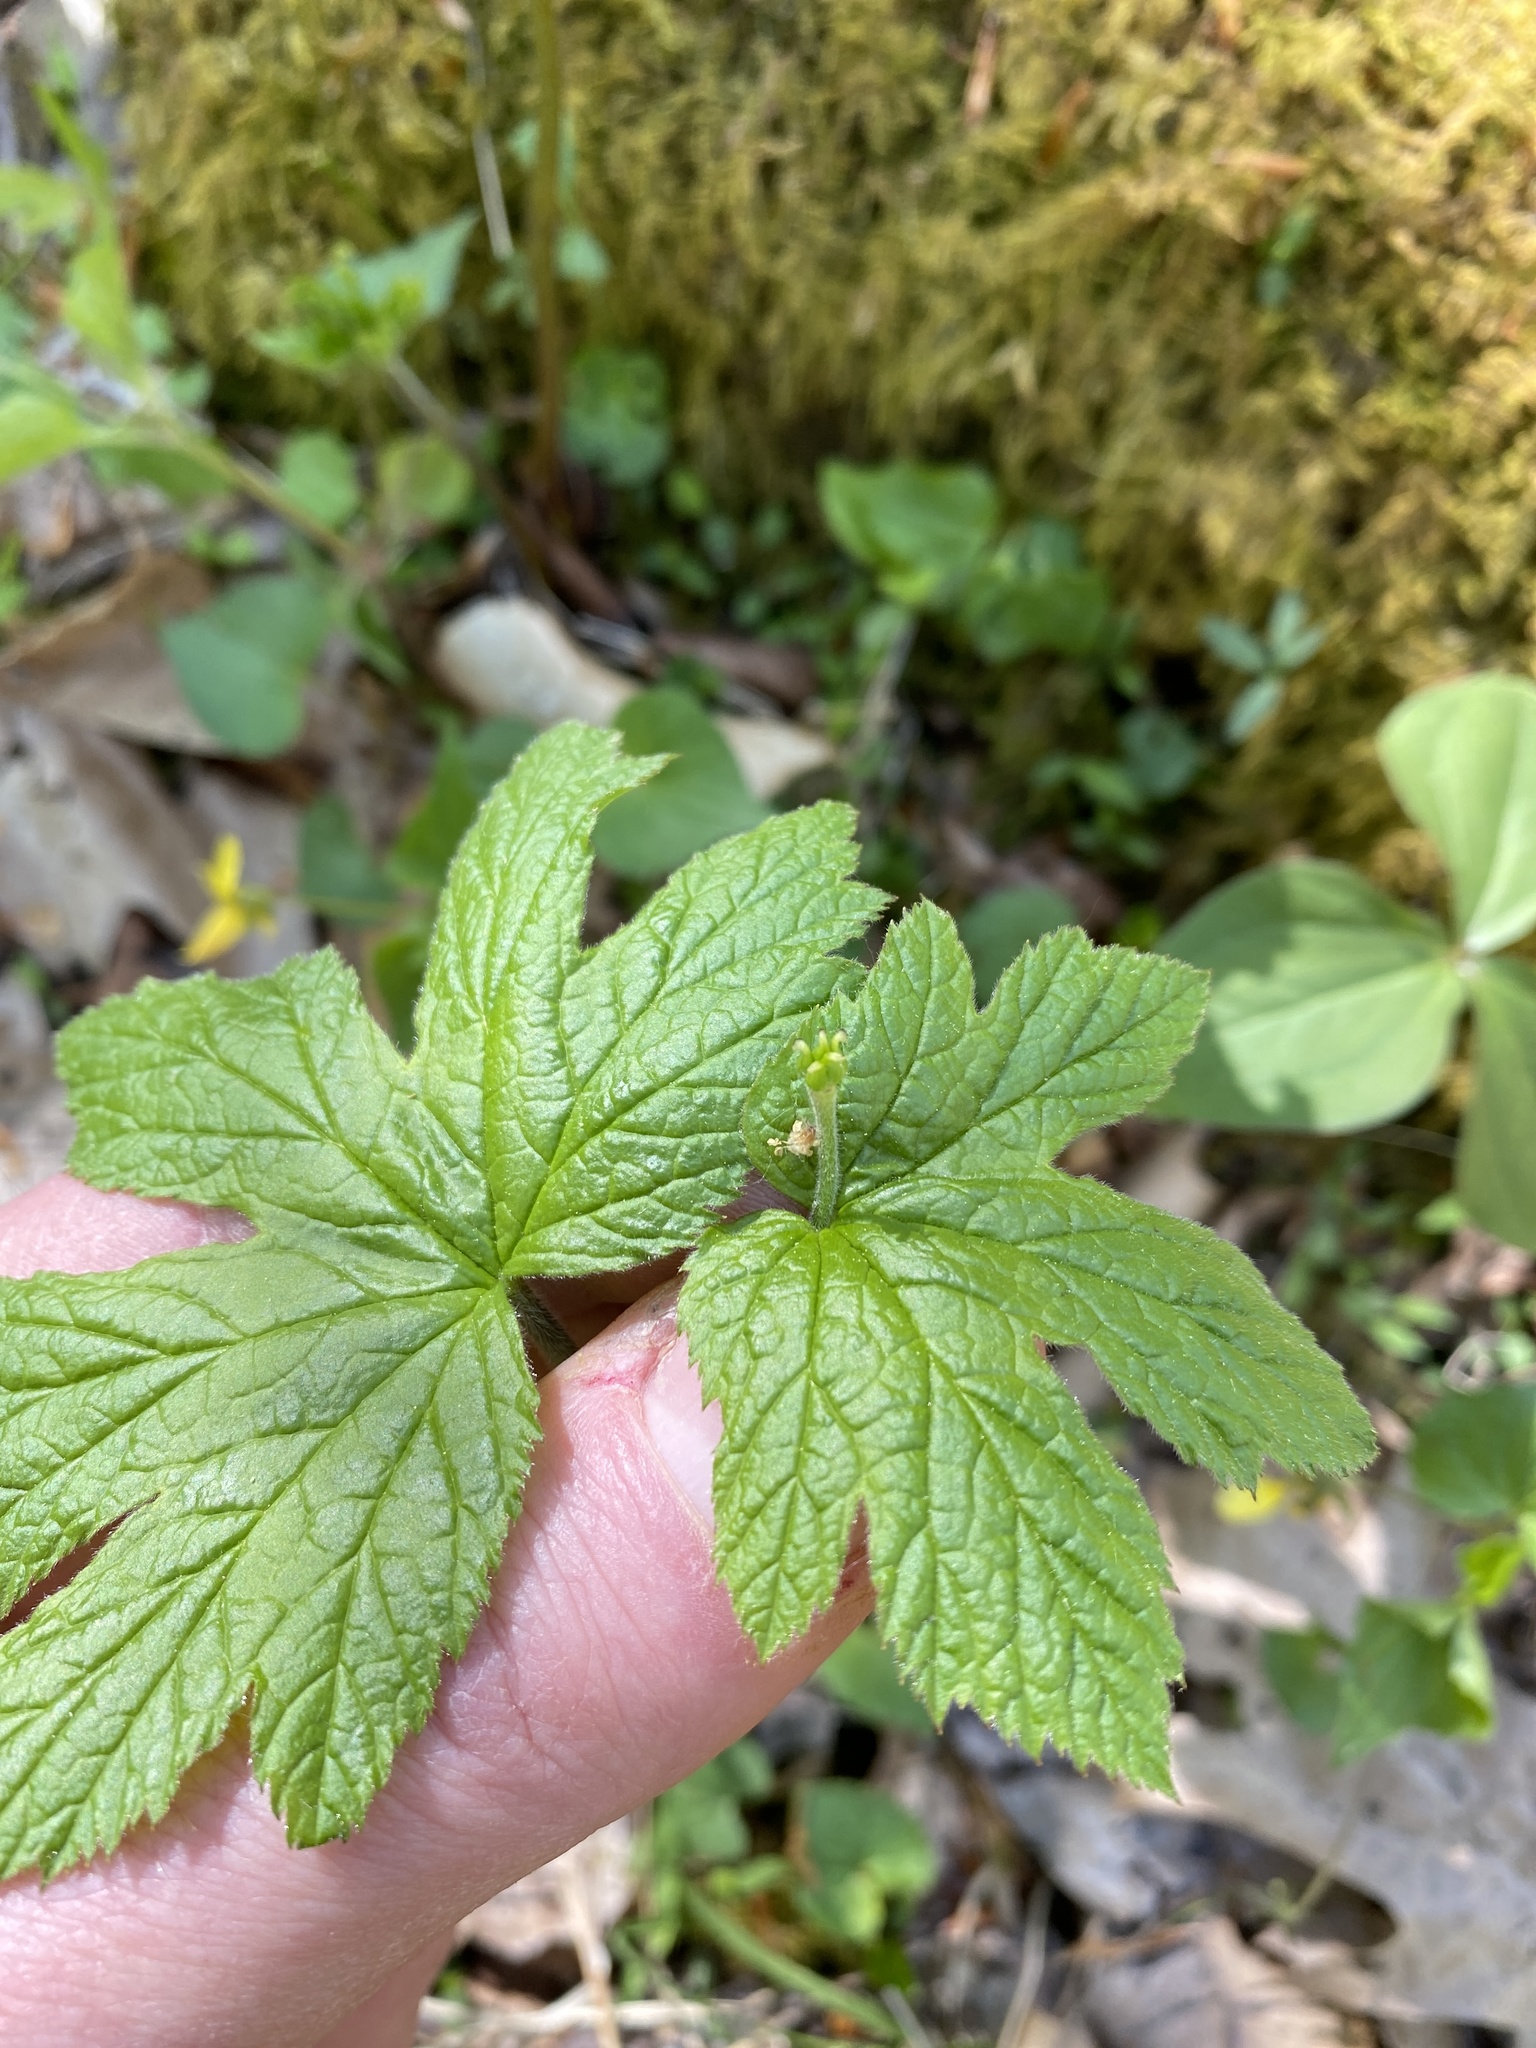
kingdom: Plantae
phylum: Tracheophyta
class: Magnoliopsida
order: Ranunculales
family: Ranunculaceae
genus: Hydrastis
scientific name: Hydrastis canadensis
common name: Goldenseal
